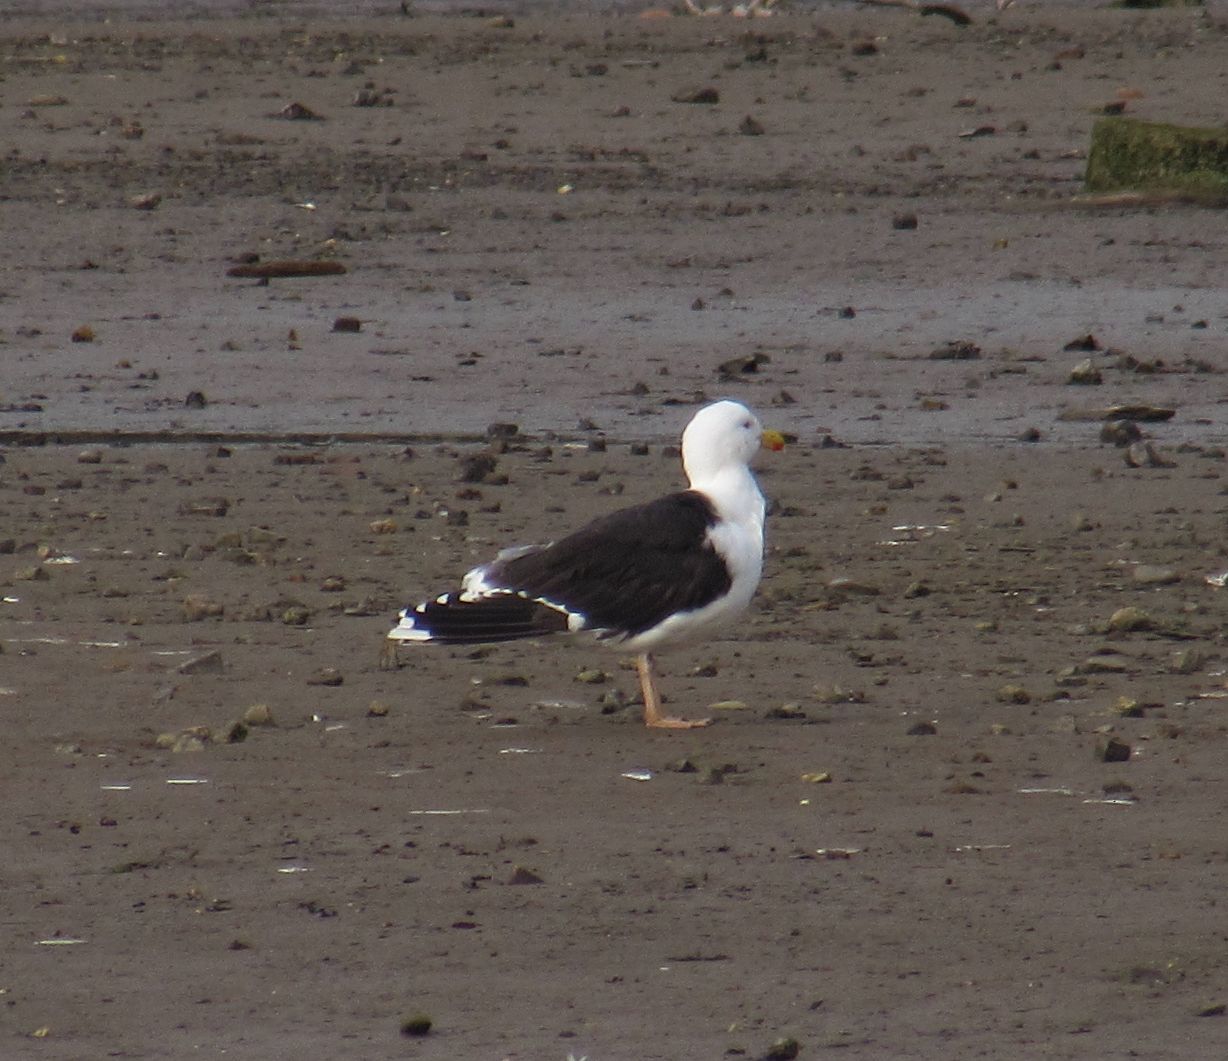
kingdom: Animalia
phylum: Chordata
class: Aves
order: Charadriiformes
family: Laridae
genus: Larus
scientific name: Larus marinus
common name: Great black-backed gull
